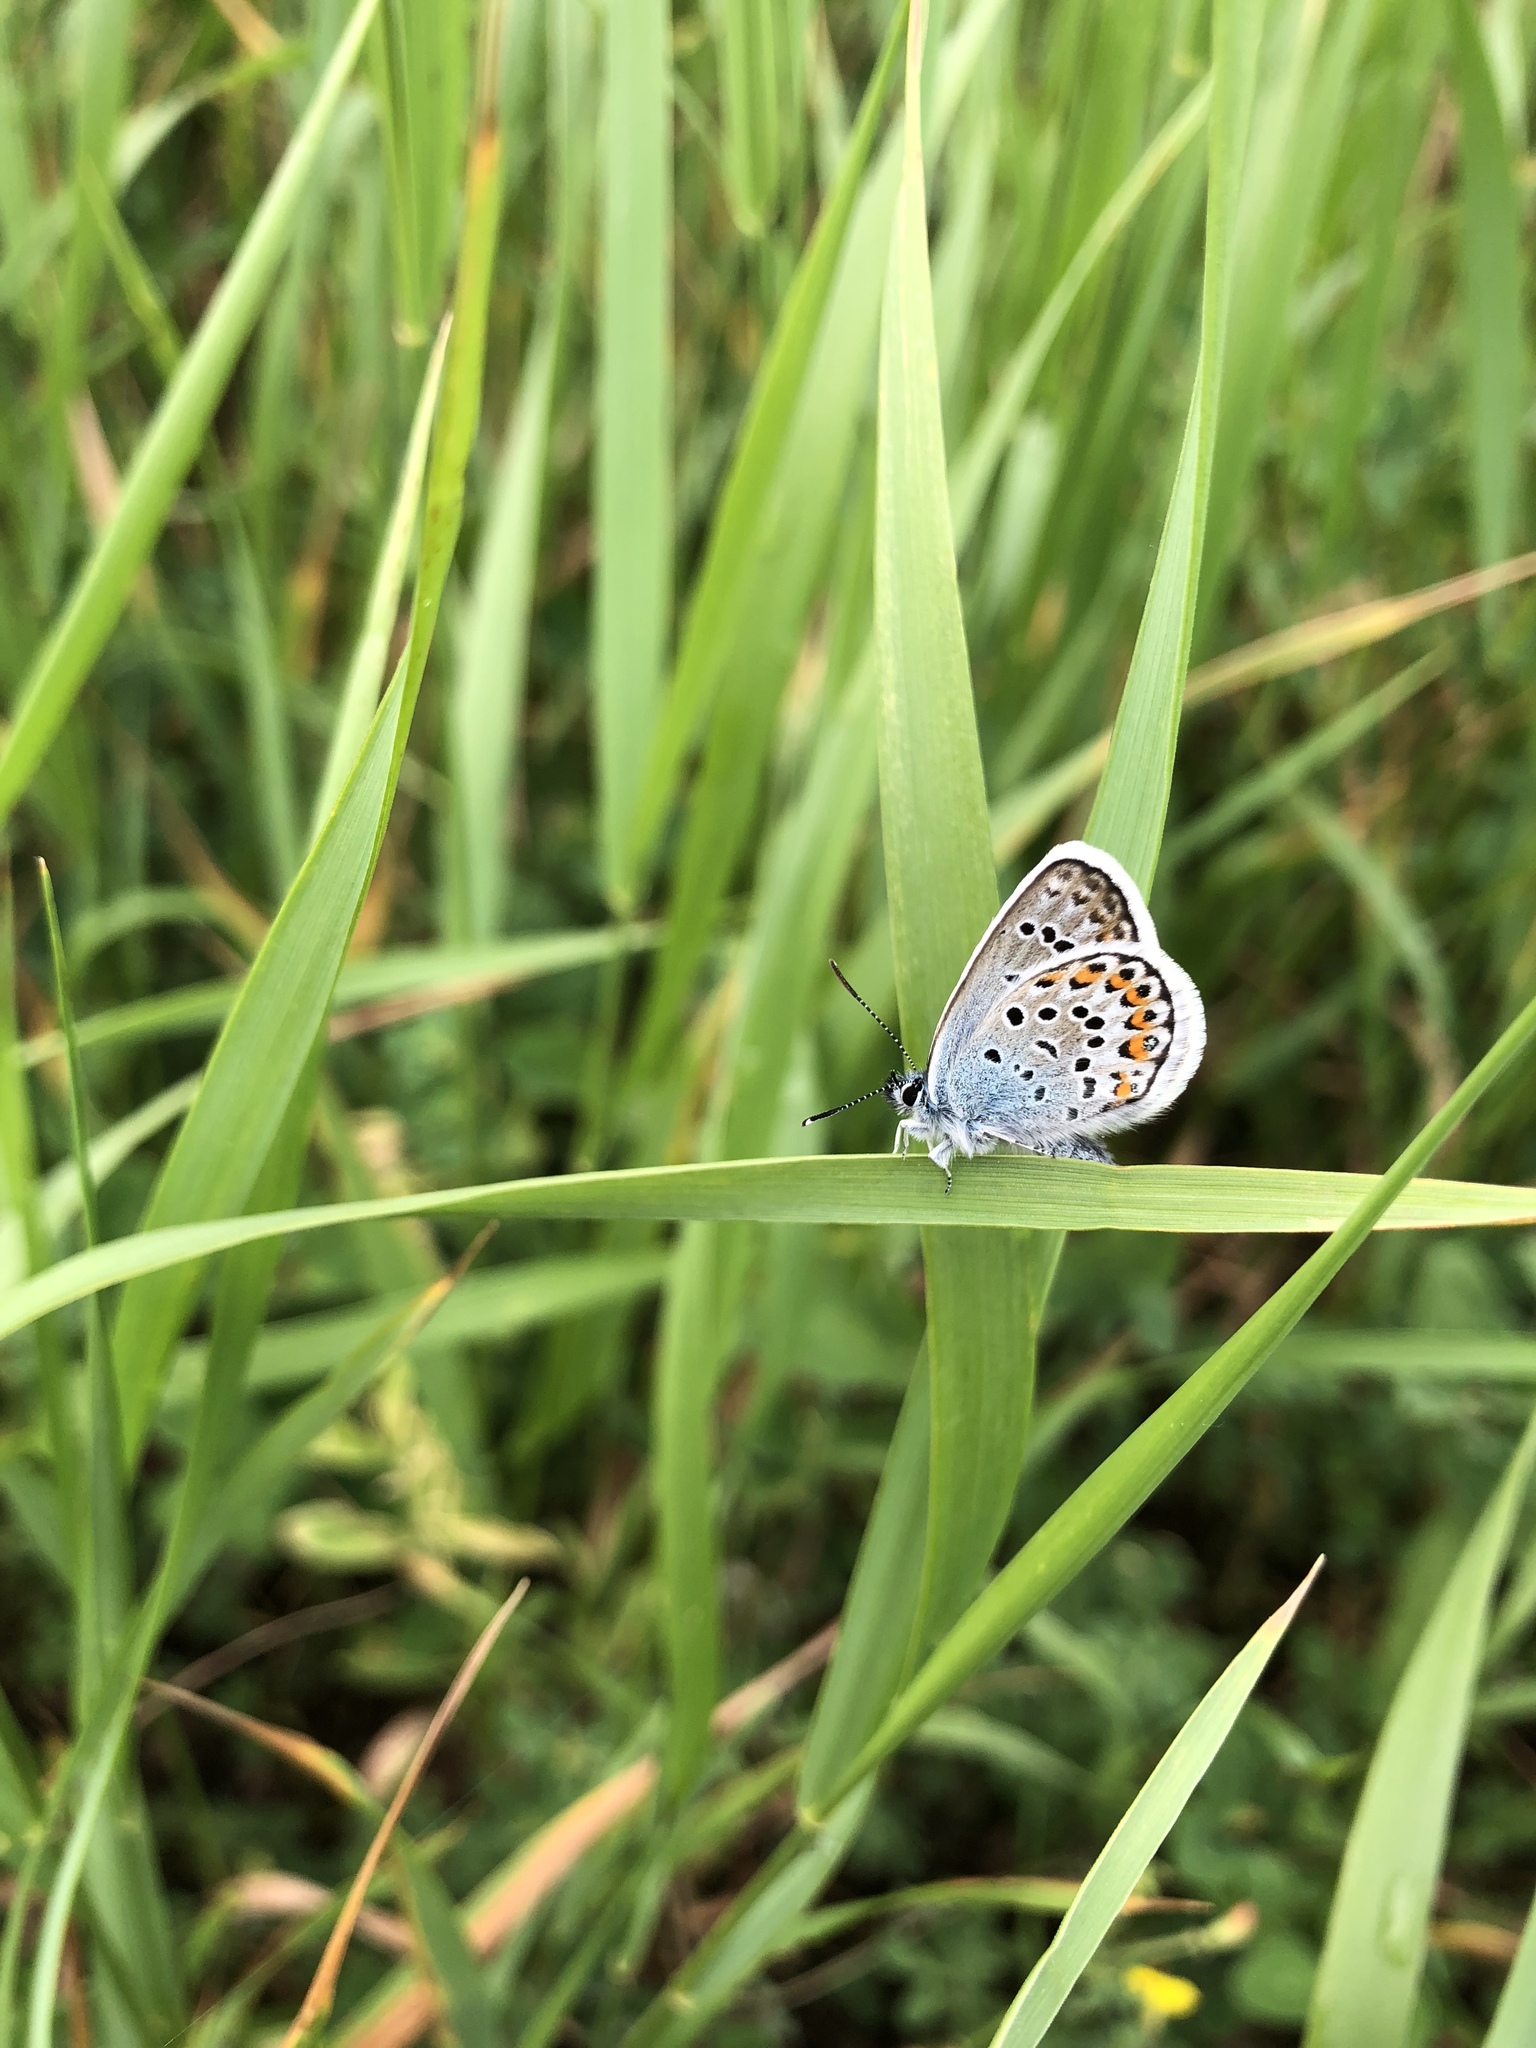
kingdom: Animalia
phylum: Arthropoda
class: Insecta
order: Lepidoptera
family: Lycaenidae
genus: Plebejus
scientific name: Plebejus argus
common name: Silver-studded blue
